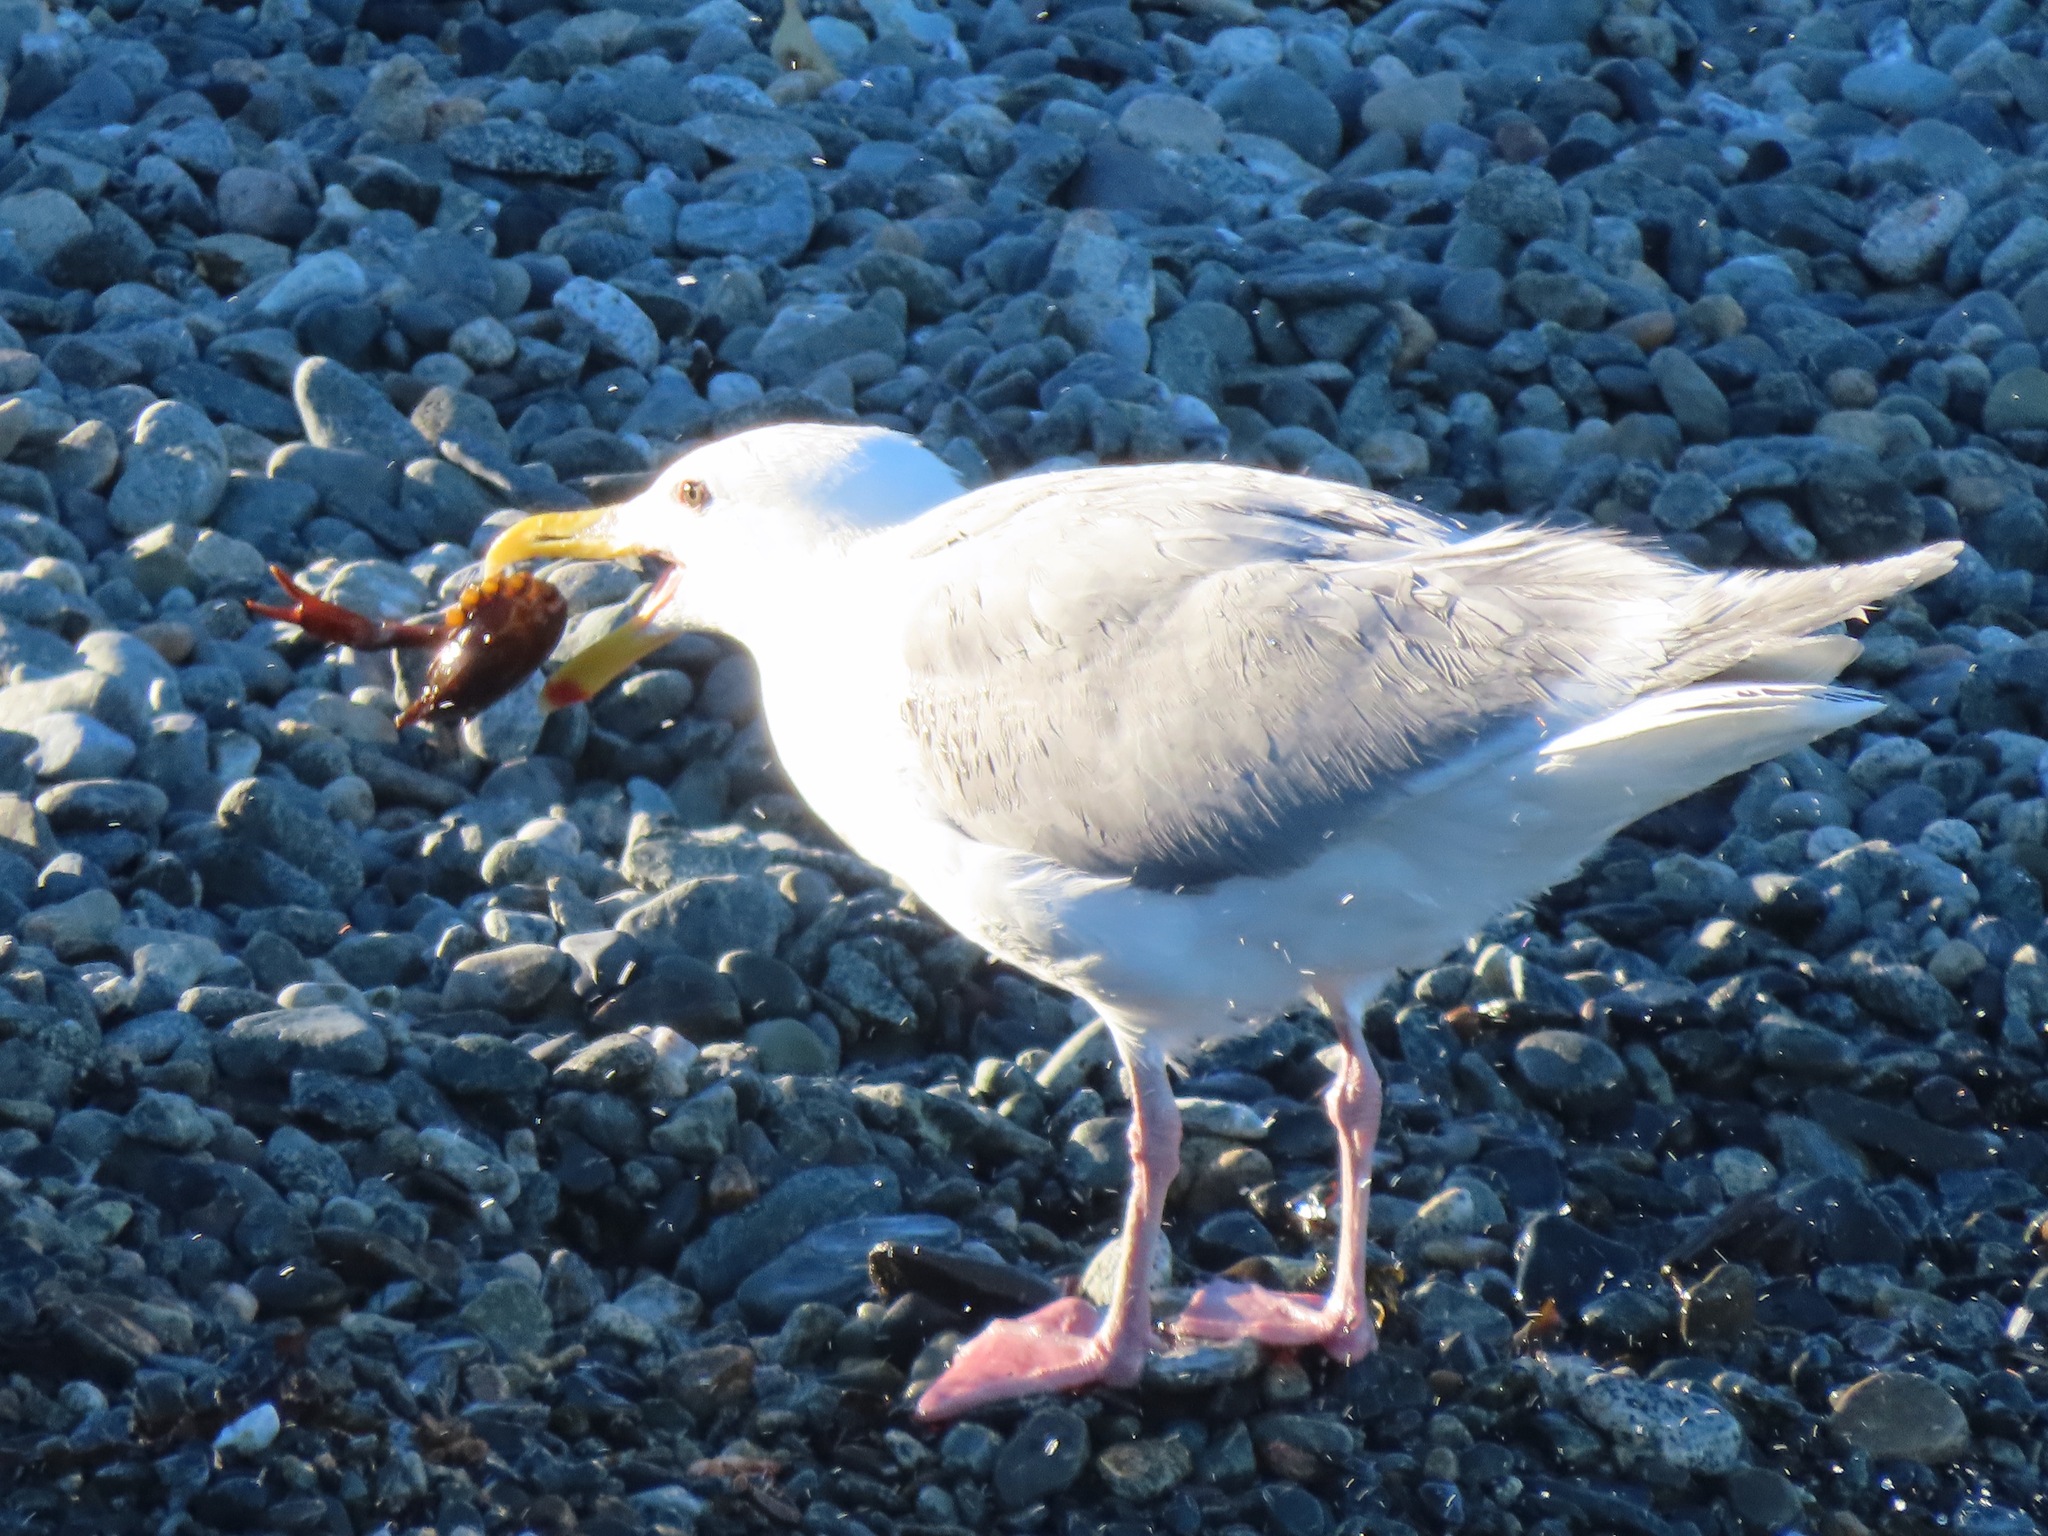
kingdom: Animalia
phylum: Chordata
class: Aves
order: Charadriiformes
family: Laridae
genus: Larus
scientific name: Larus glaucescens
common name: Glaucous-winged gull
